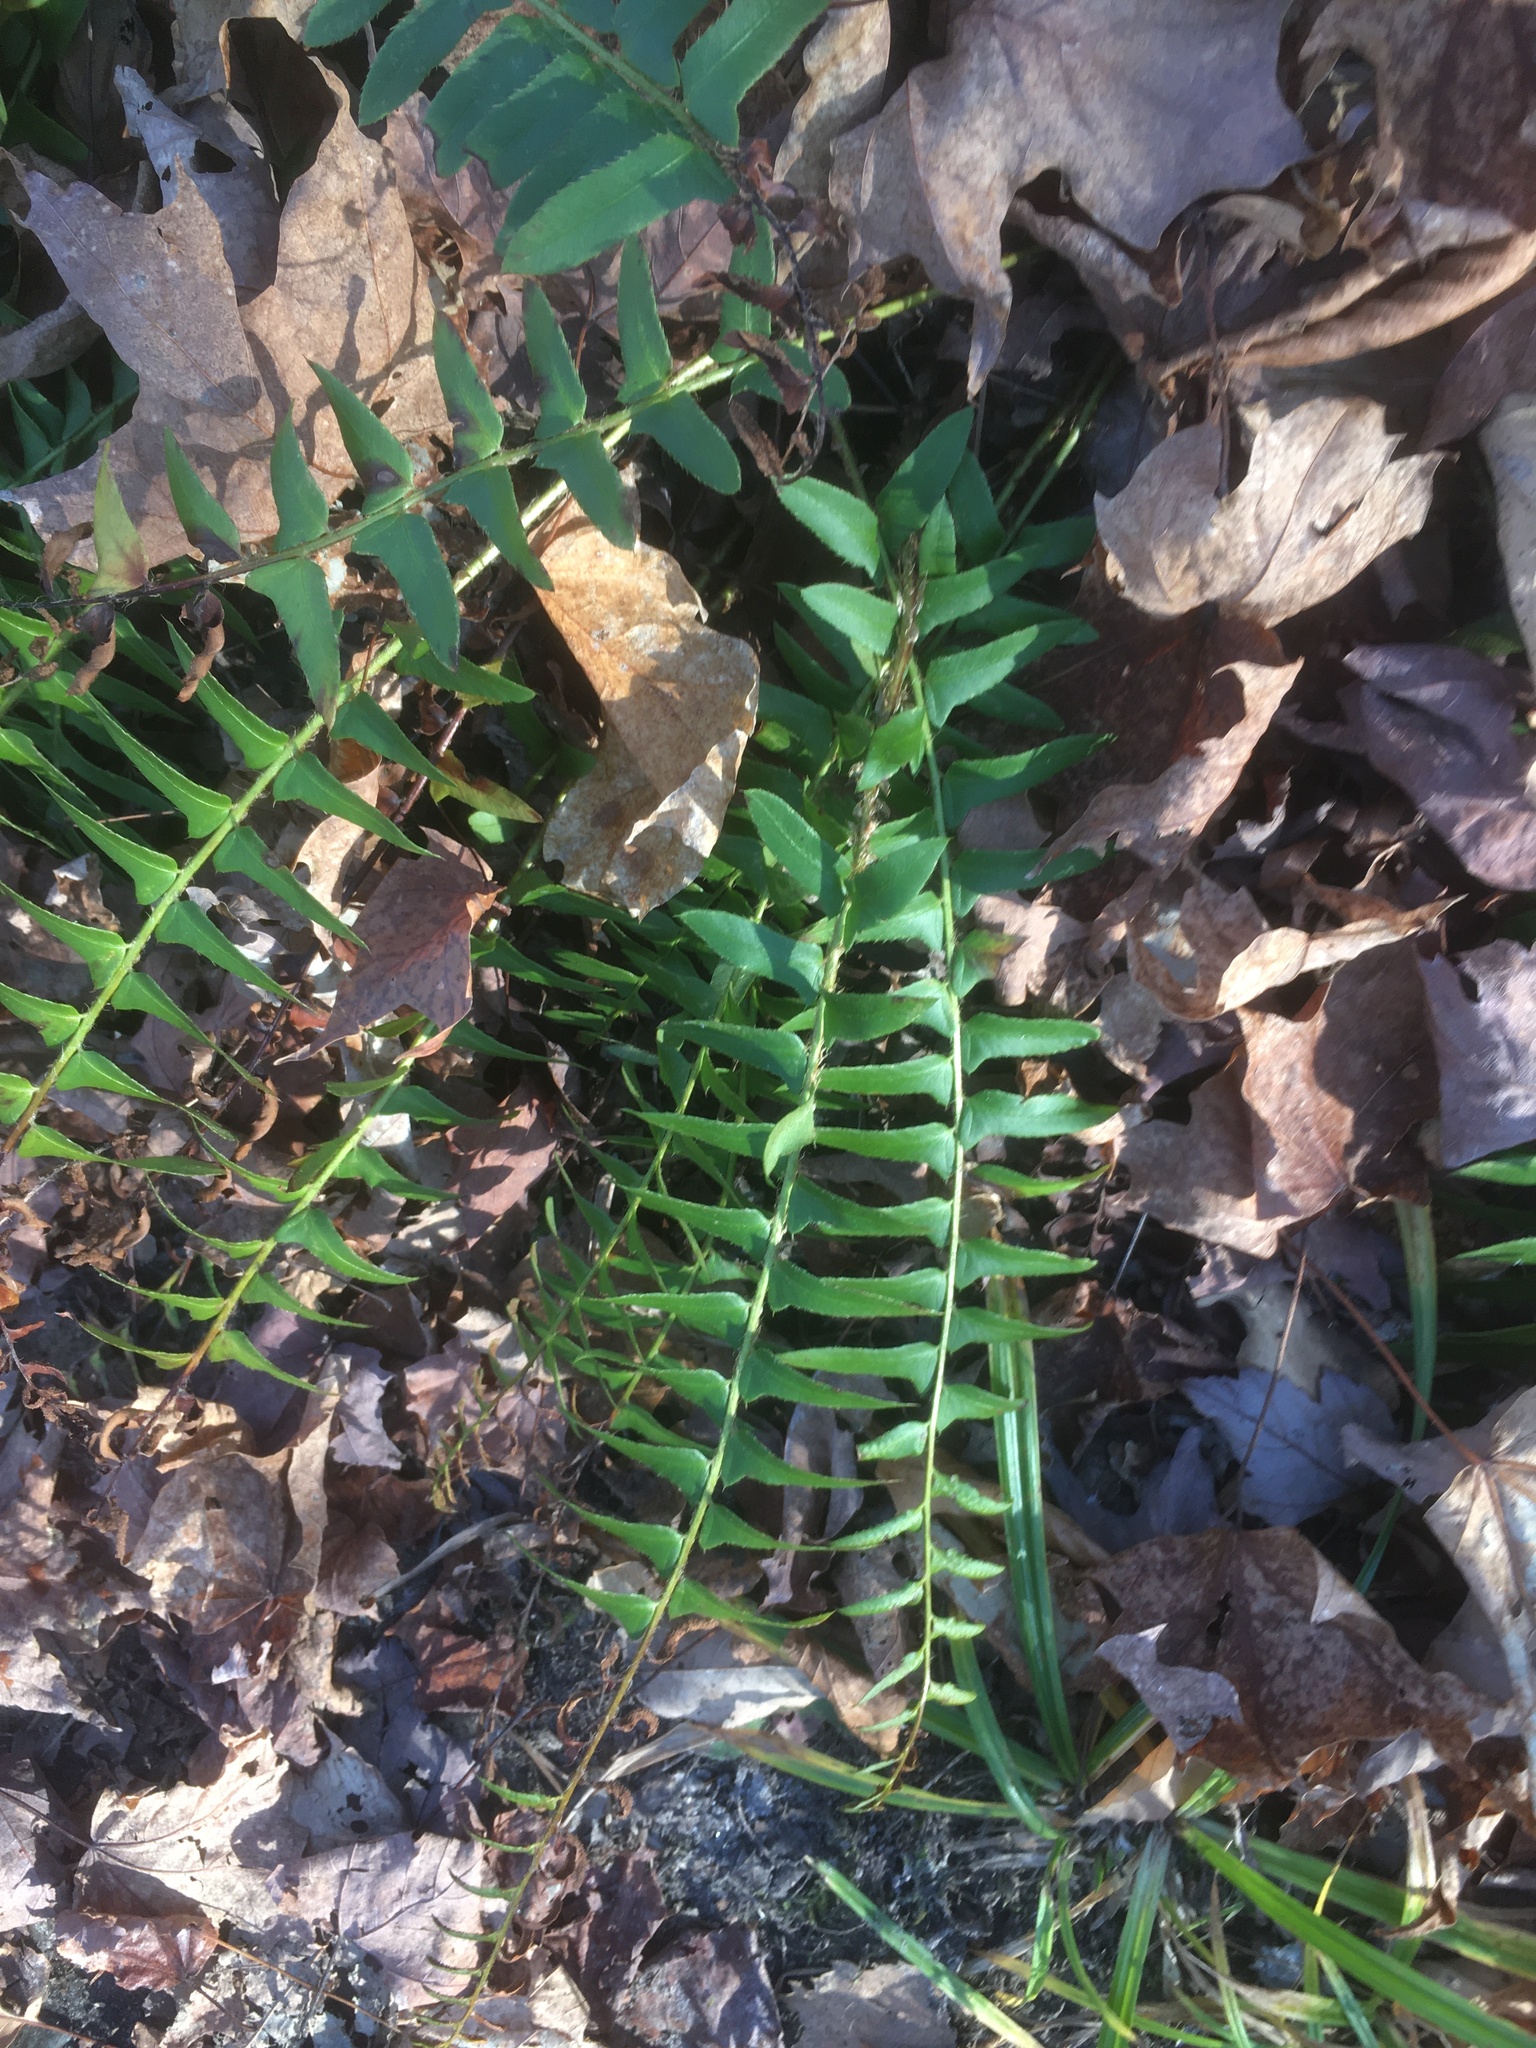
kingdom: Plantae
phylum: Tracheophyta
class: Polypodiopsida
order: Polypodiales
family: Dryopteridaceae
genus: Polystichum
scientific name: Polystichum acrostichoides
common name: Christmas fern
